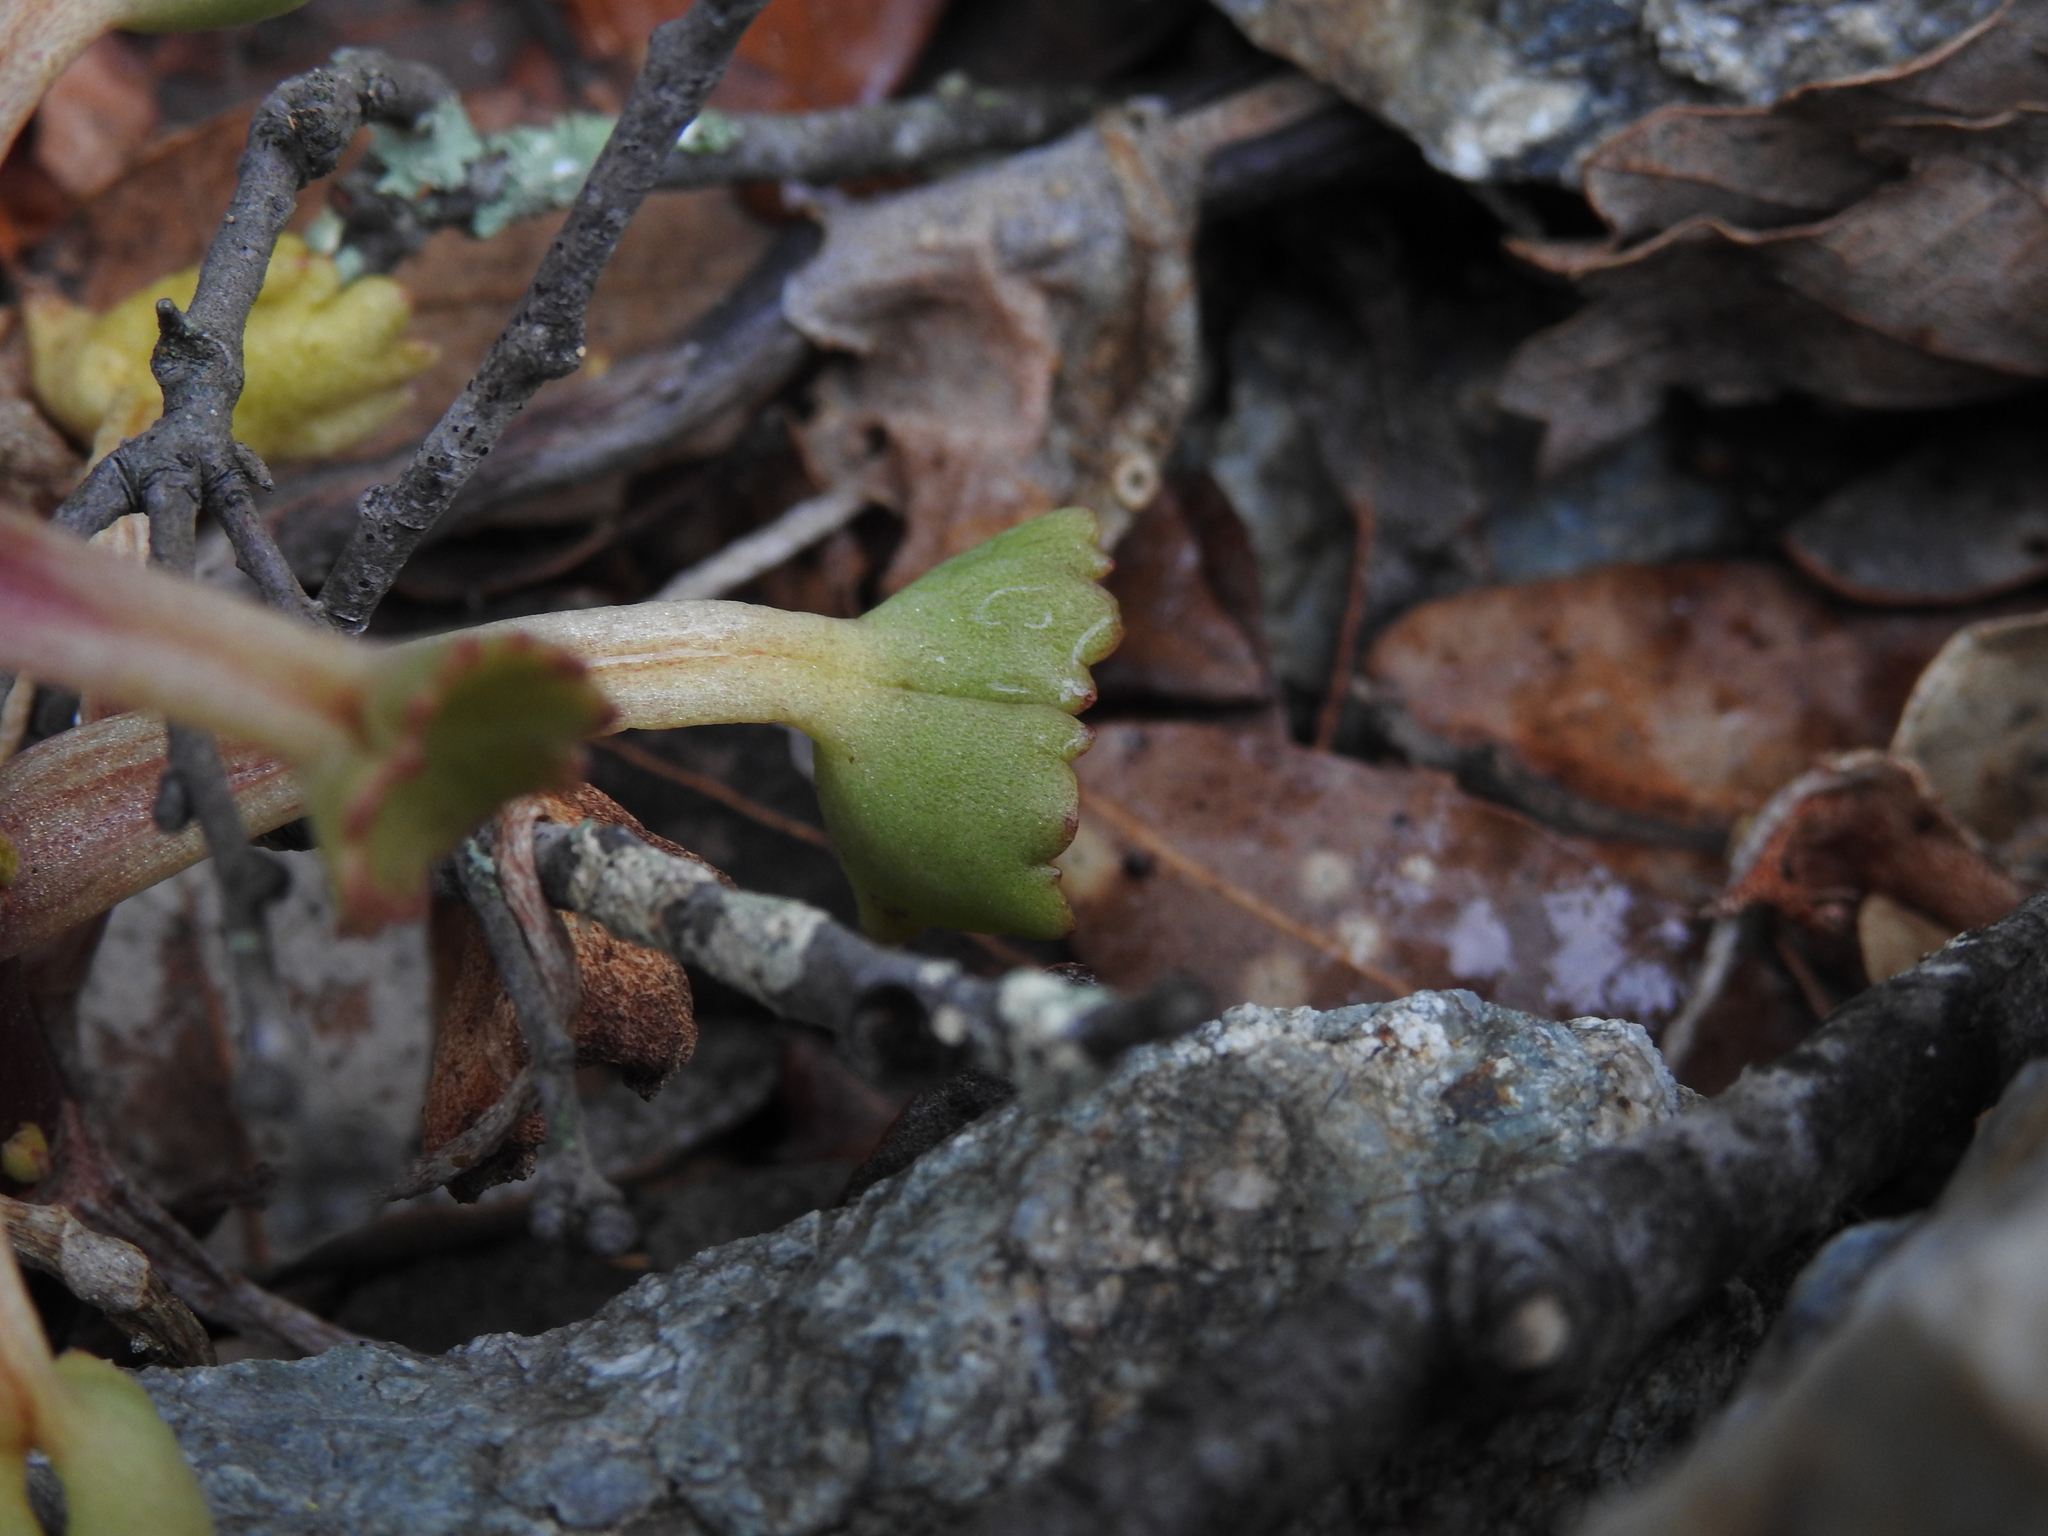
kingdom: Plantae
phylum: Tracheophyta
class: Magnoliopsida
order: Saxifragales
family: Crassulaceae
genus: Umbilicus
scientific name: Umbilicus rupestris
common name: Navelwort
